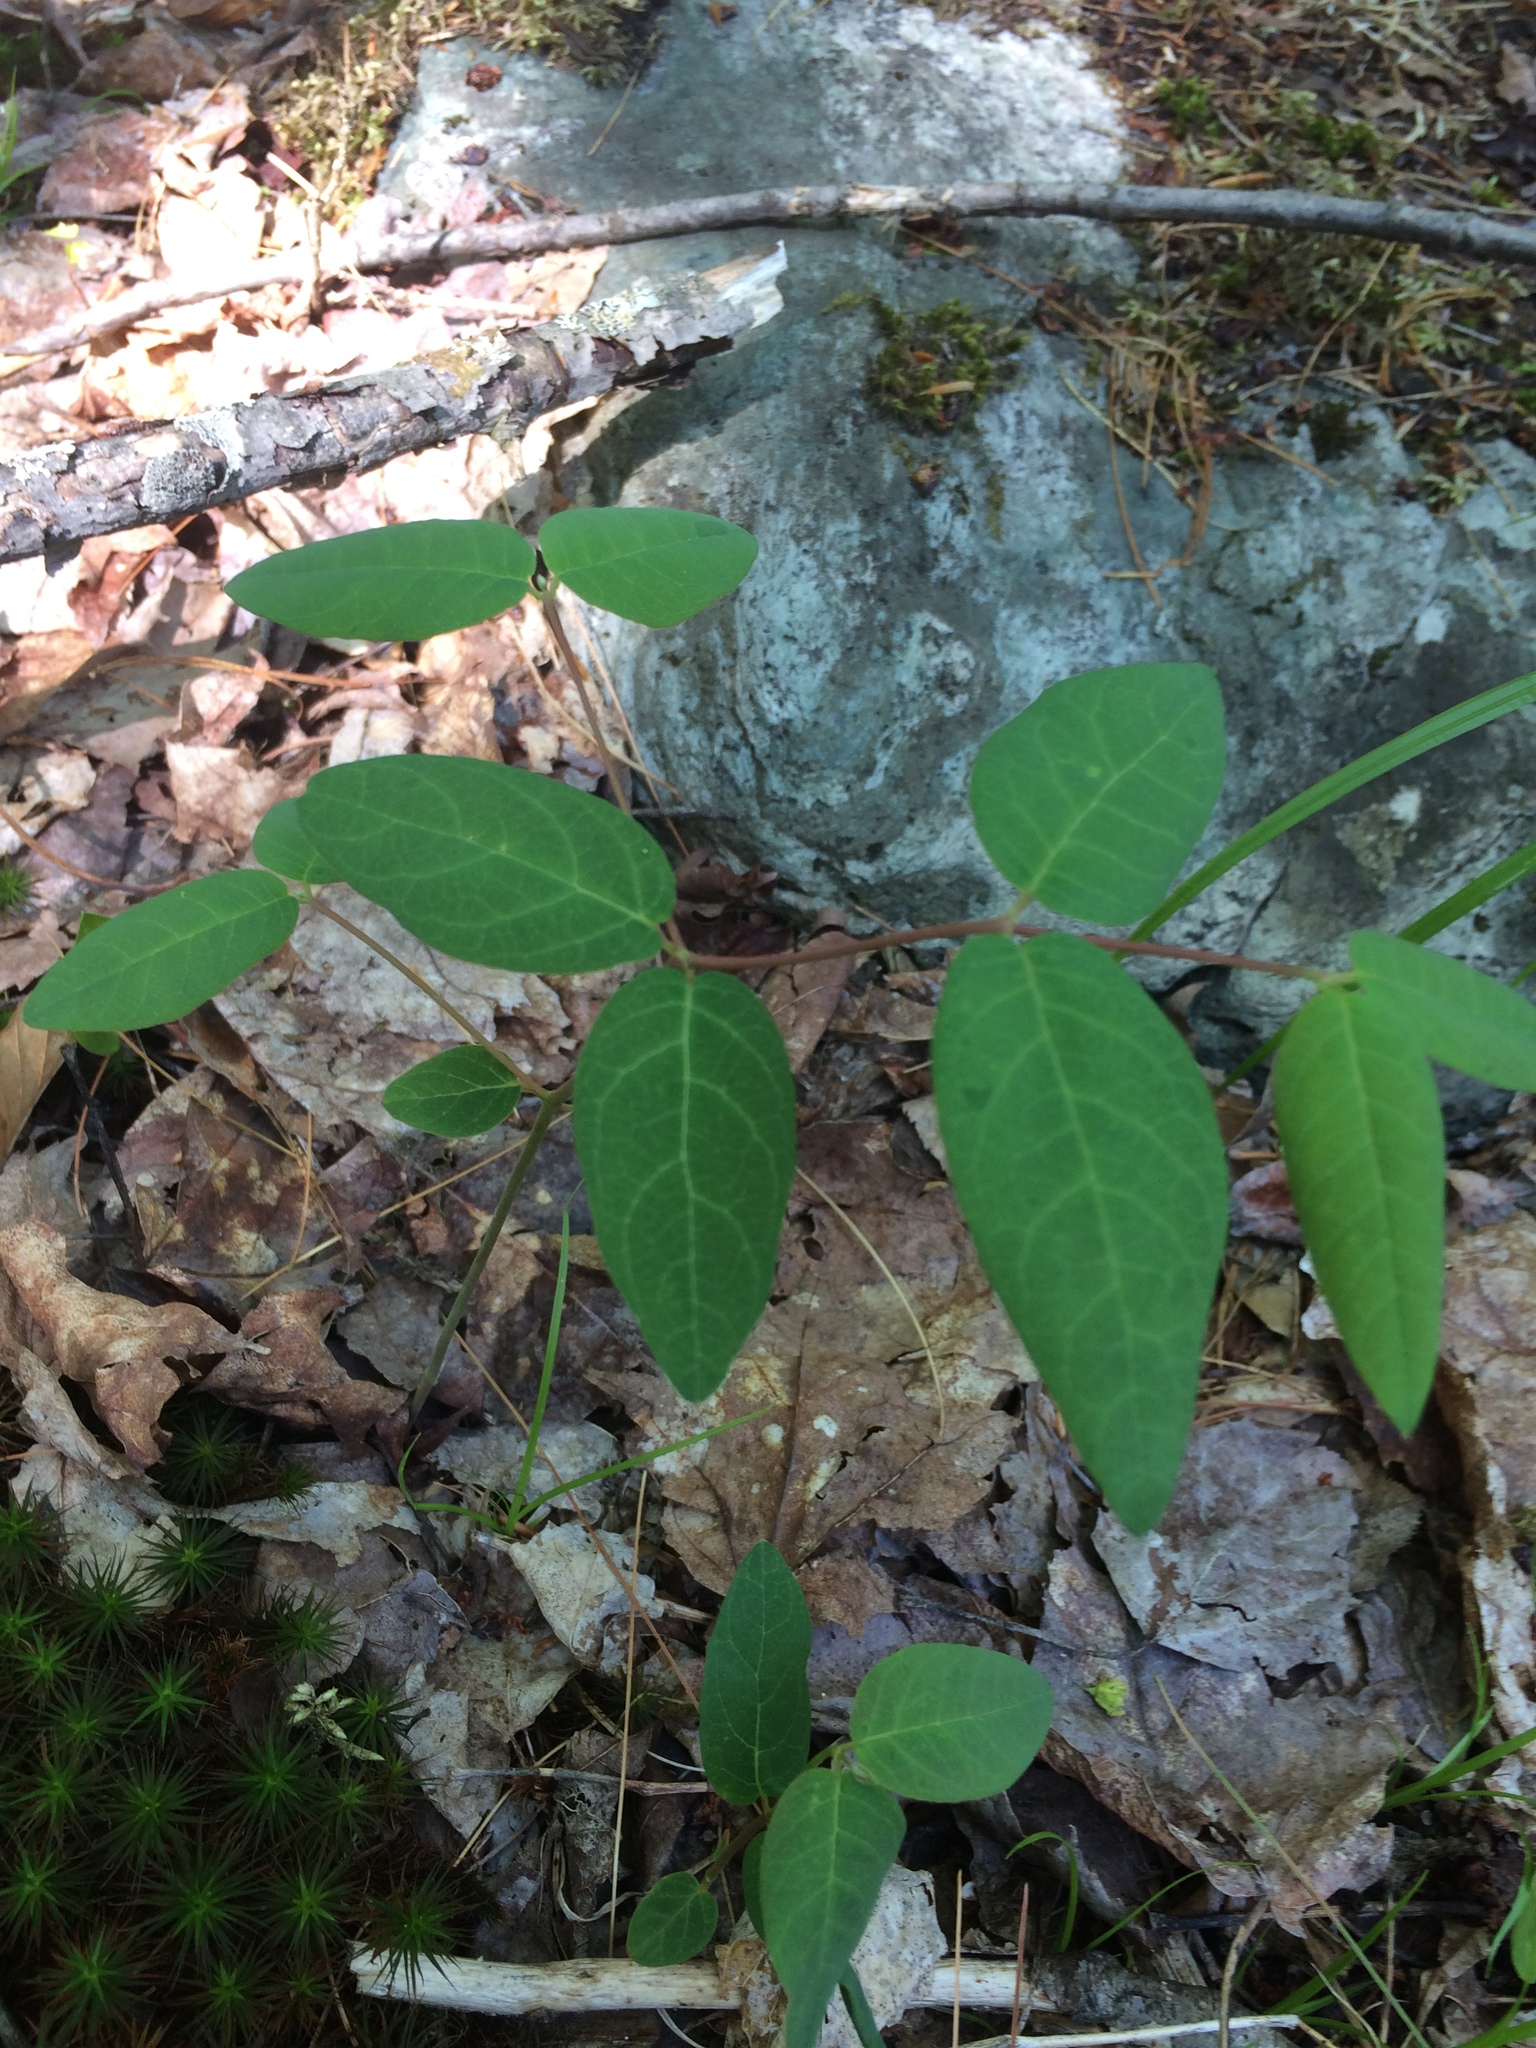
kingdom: Plantae
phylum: Tracheophyta
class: Magnoliopsida
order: Gentianales
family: Apocynaceae
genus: Apocynum
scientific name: Apocynum androsaemifolium
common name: Spreading dogbane
